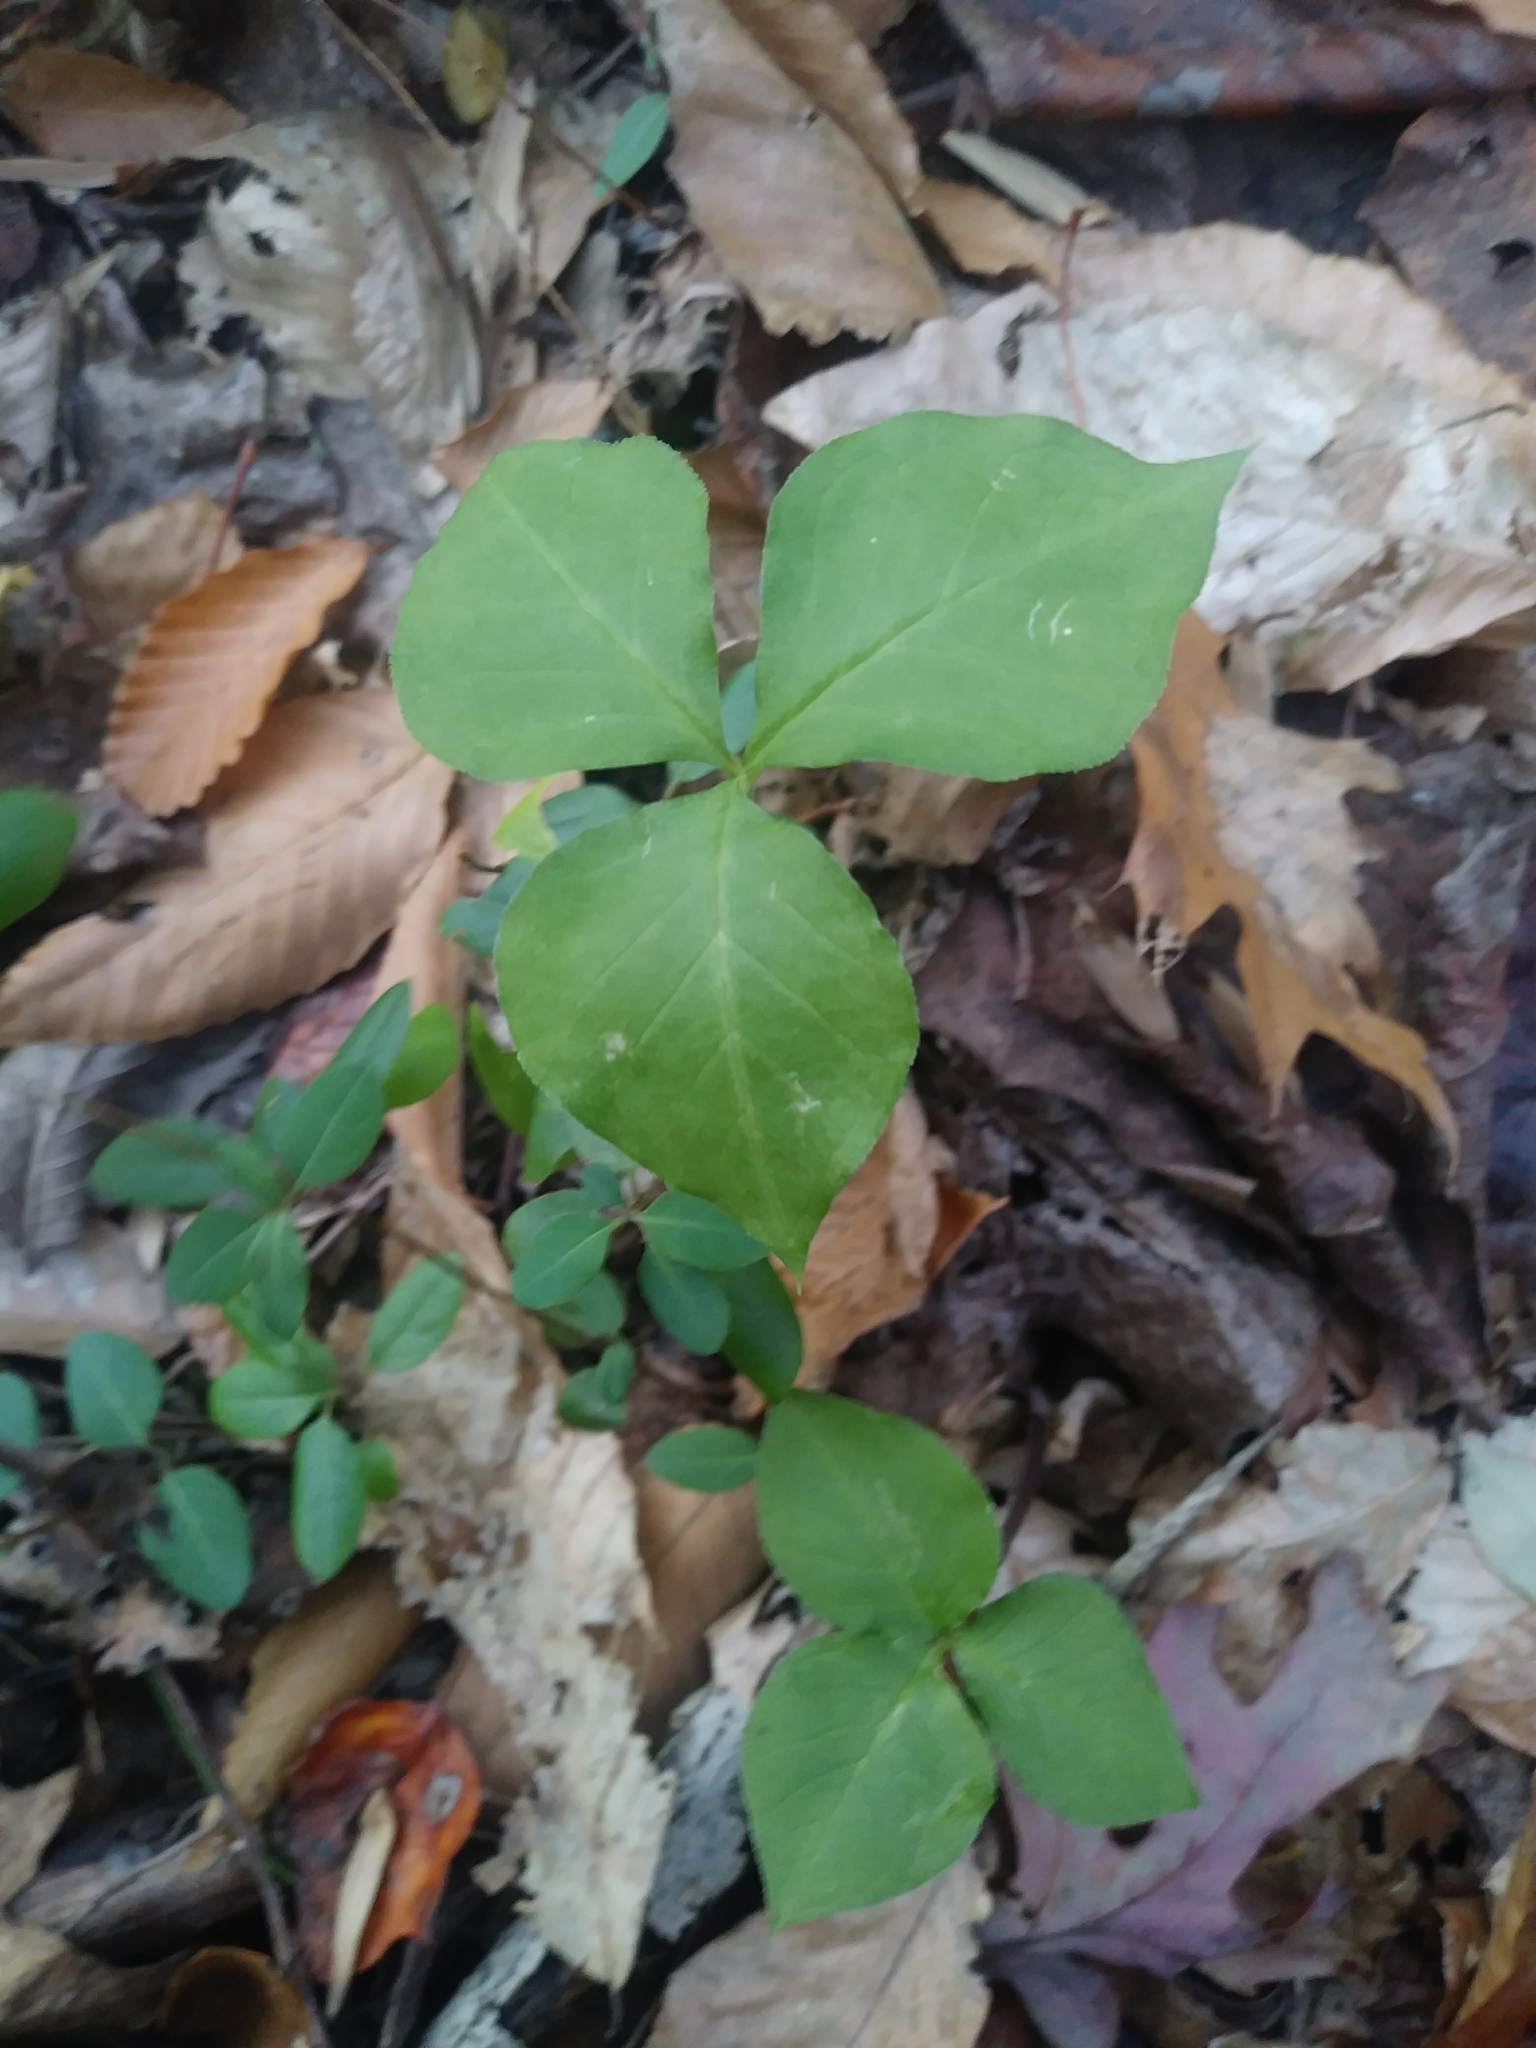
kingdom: Plantae
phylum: Tracheophyta
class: Liliopsida
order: Alismatales
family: Araceae
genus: Arisaema
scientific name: Arisaema triphyllum
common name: Jack-in-the-pulpit
